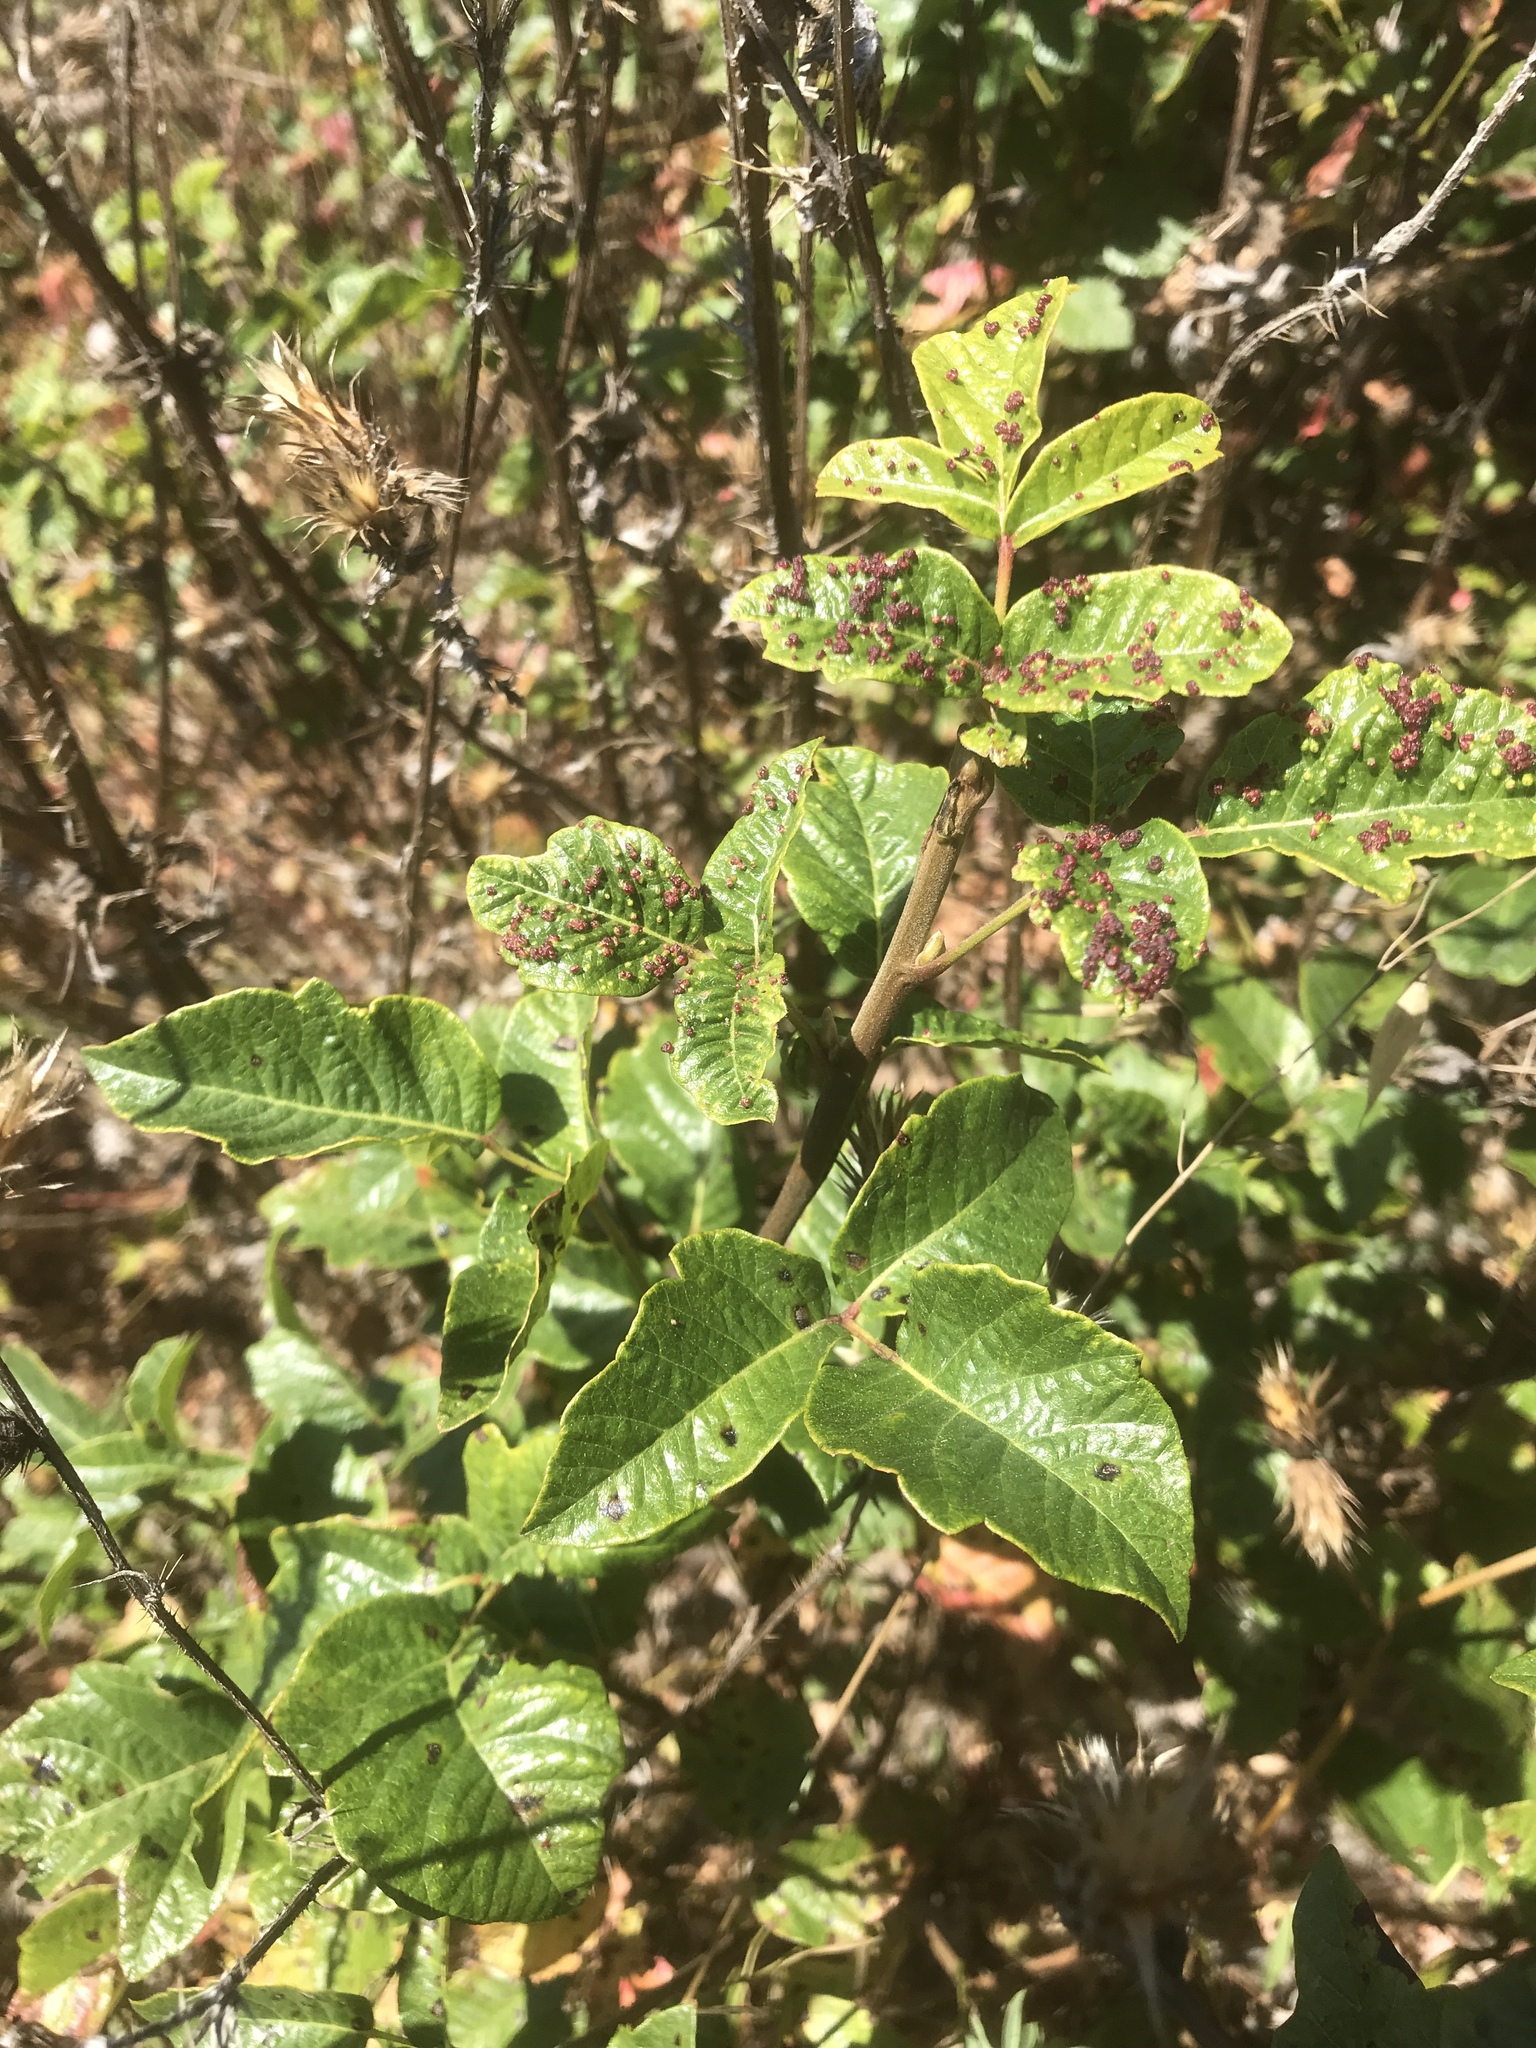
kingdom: Plantae
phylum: Tracheophyta
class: Magnoliopsida
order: Sapindales
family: Anacardiaceae
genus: Toxicodendron
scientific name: Toxicodendron diversilobum
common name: Pacific poison-oak
